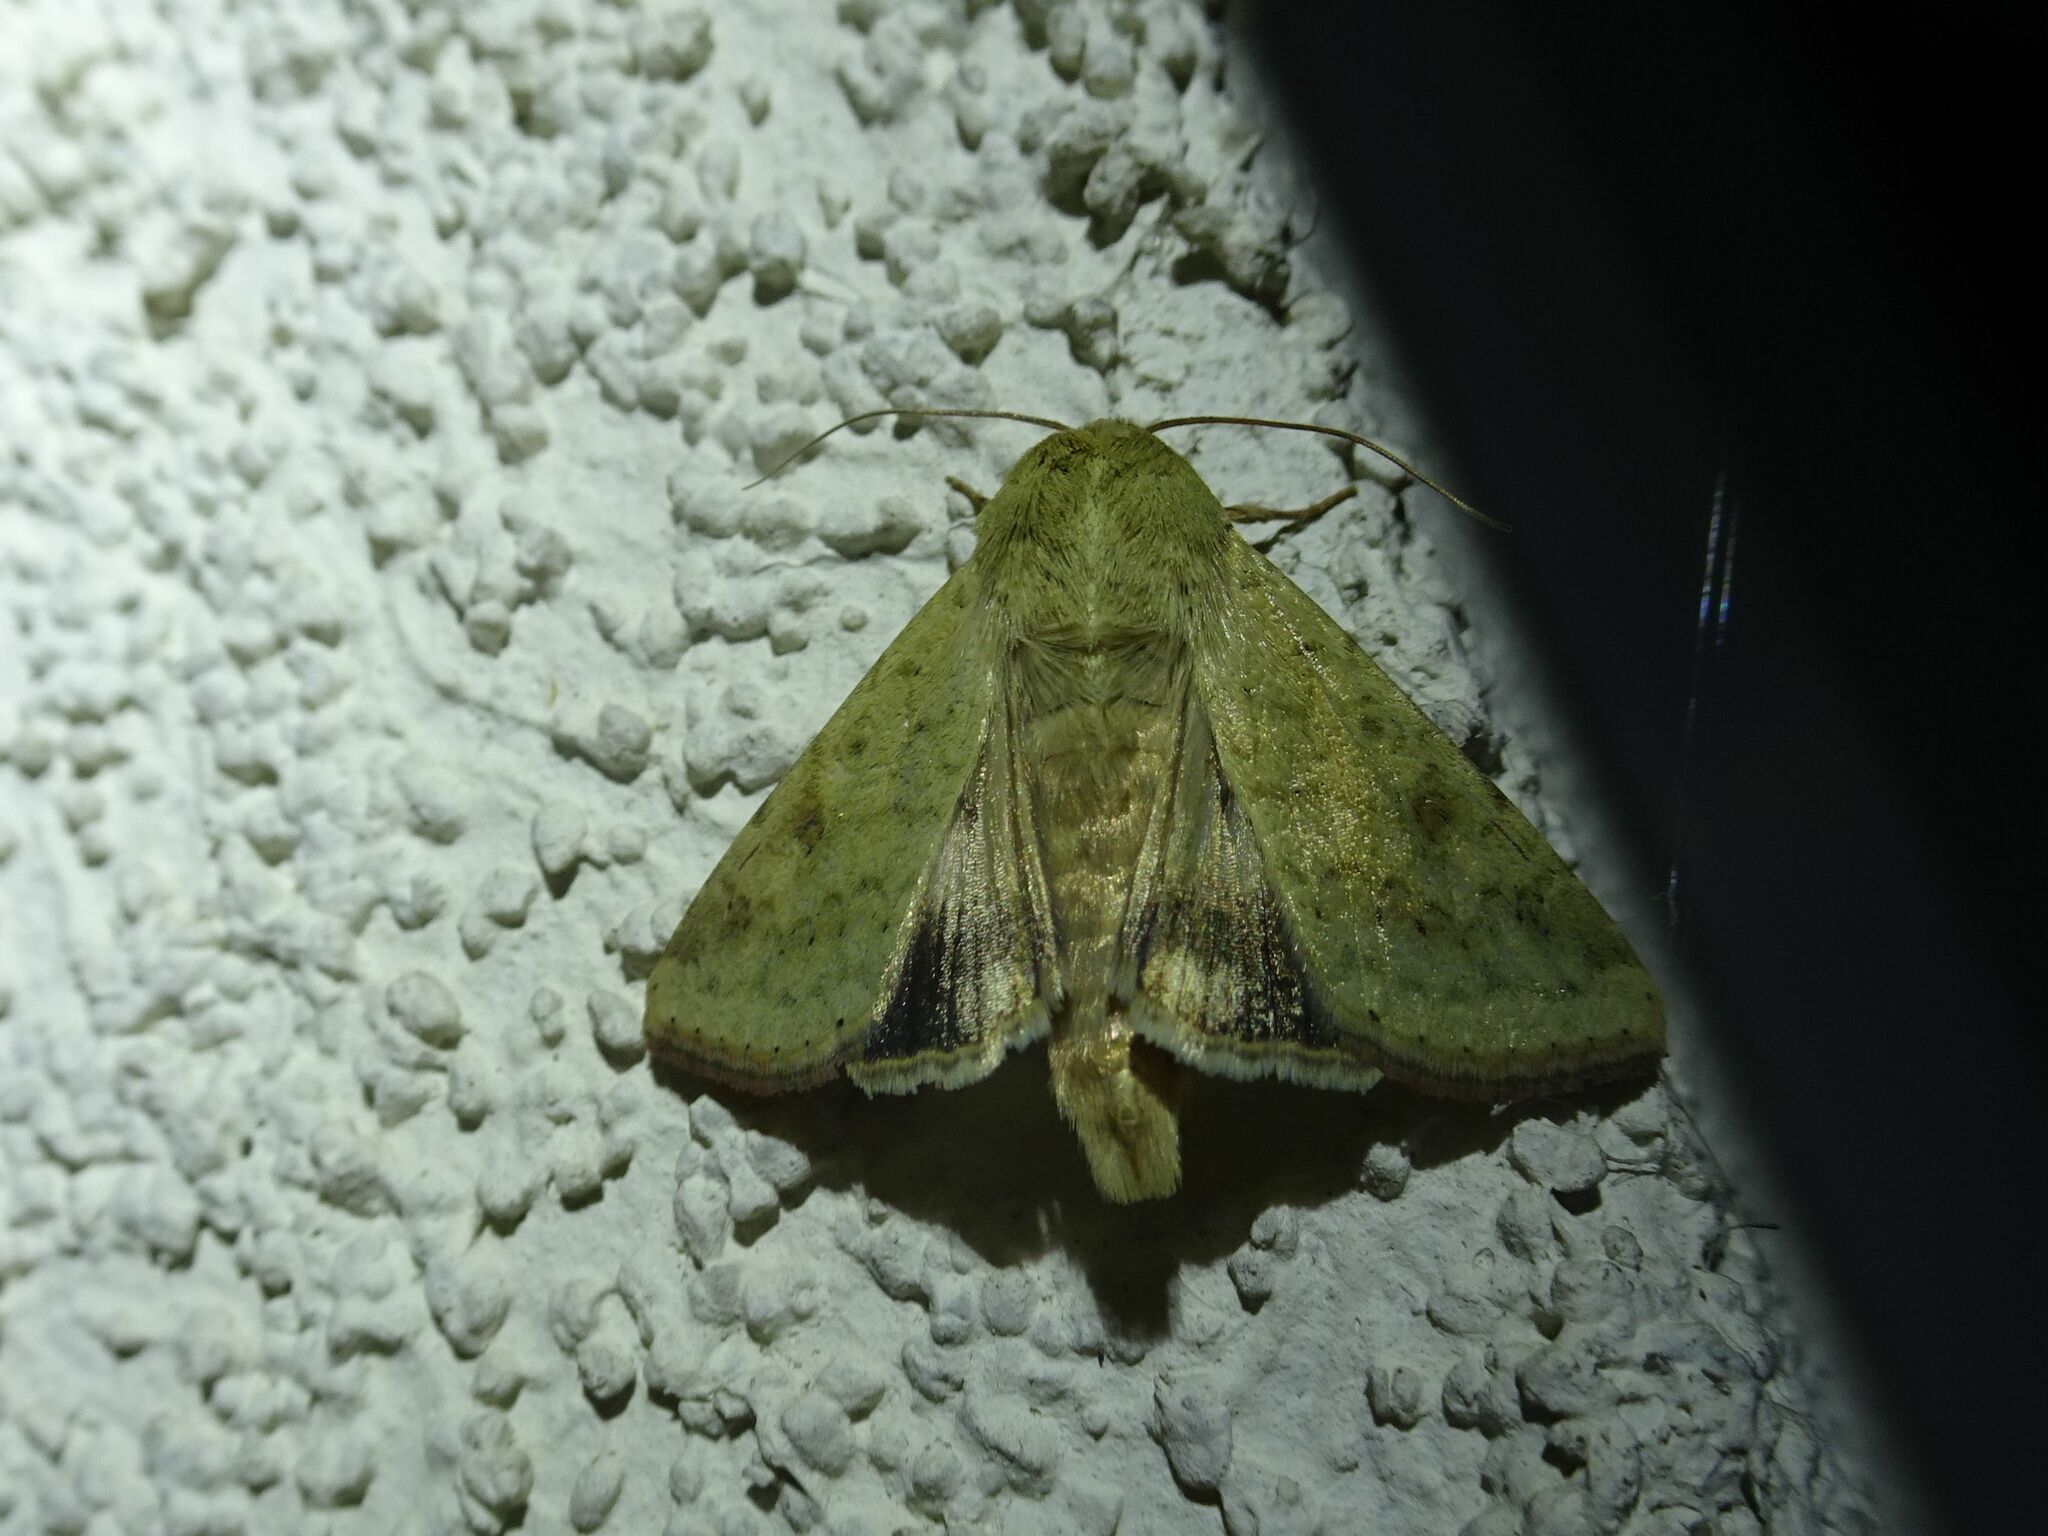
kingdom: Animalia
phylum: Arthropoda
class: Insecta
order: Lepidoptera
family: Noctuidae
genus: Helicoverpa
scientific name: Helicoverpa armigera
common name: Cotton bollworm
